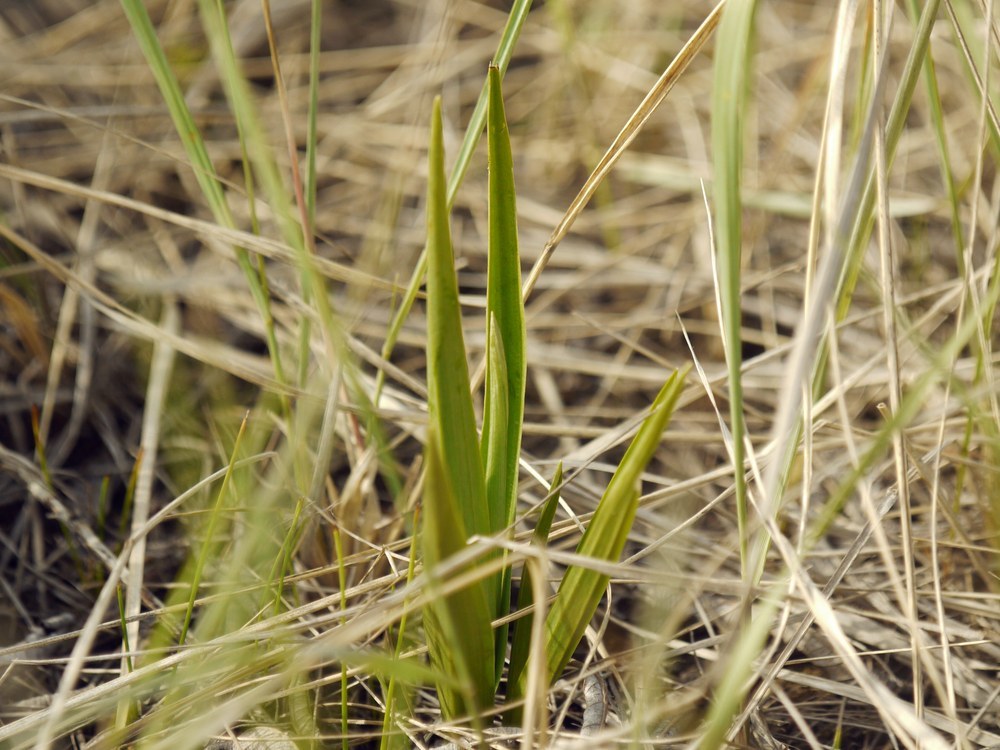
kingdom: Plantae
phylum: Tracheophyta
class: Liliopsida
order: Asparagales
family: Orchidaceae
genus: Anacamptis
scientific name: Anacamptis palustris
